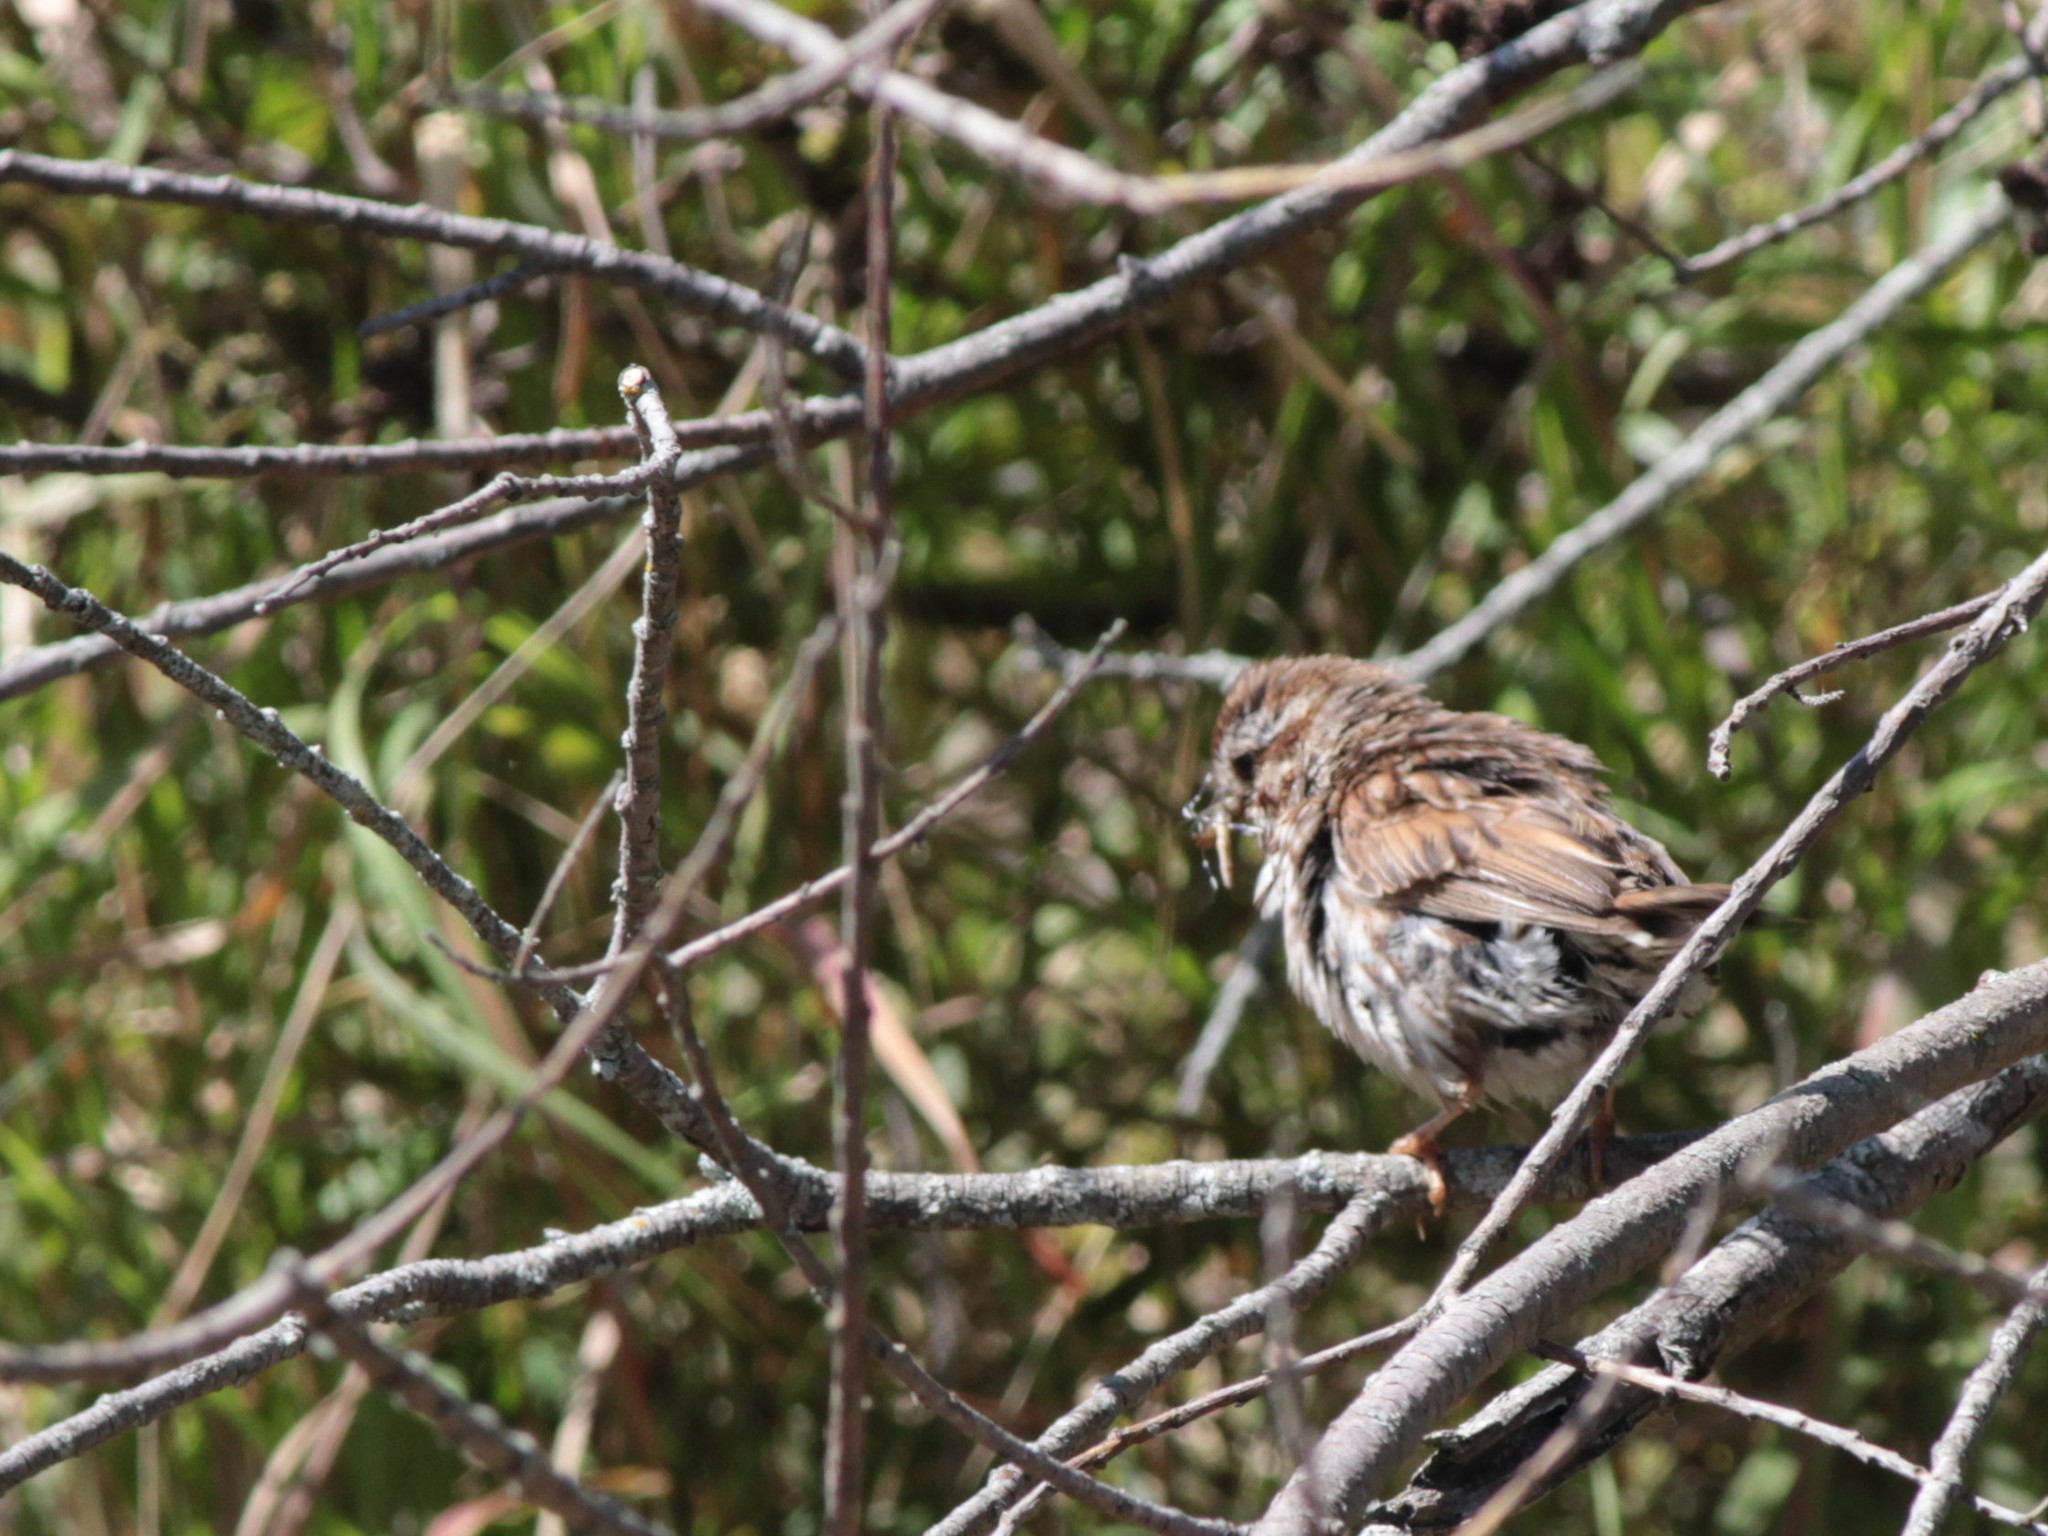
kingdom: Animalia
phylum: Chordata
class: Aves
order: Passeriformes
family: Passerellidae
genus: Melospiza
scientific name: Melospiza melodia
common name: Song sparrow
